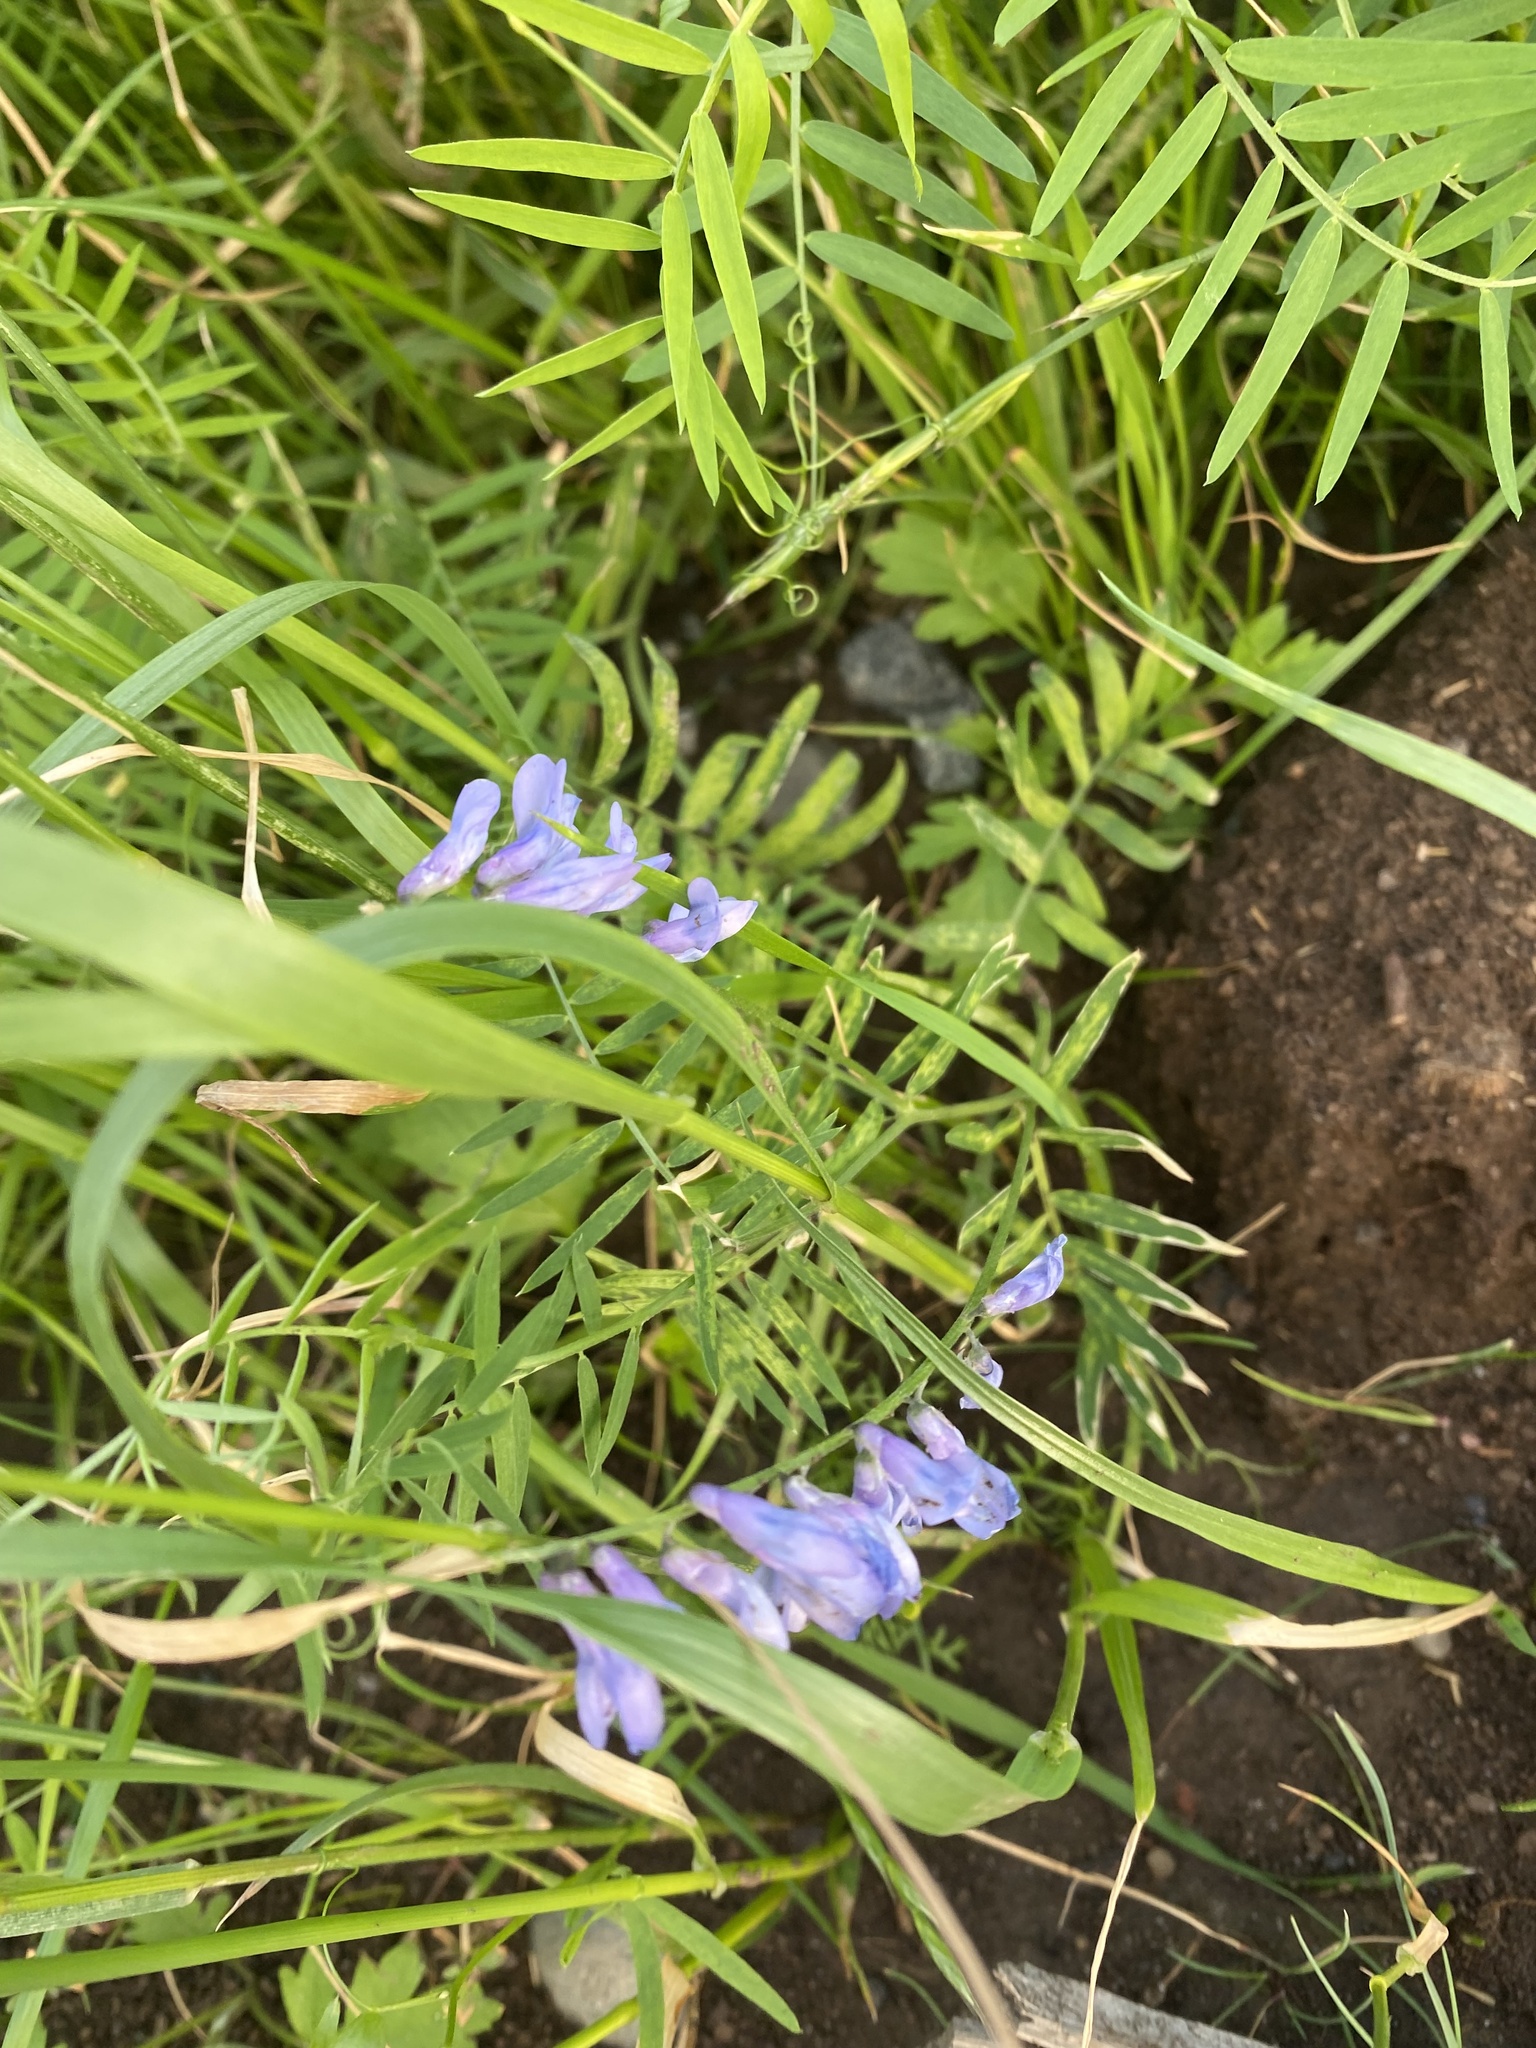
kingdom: Plantae
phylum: Tracheophyta
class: Magnoliopsida
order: Fabales
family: Fabaceae
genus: Vicia
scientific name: Vicia cracca
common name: Bird vetch
